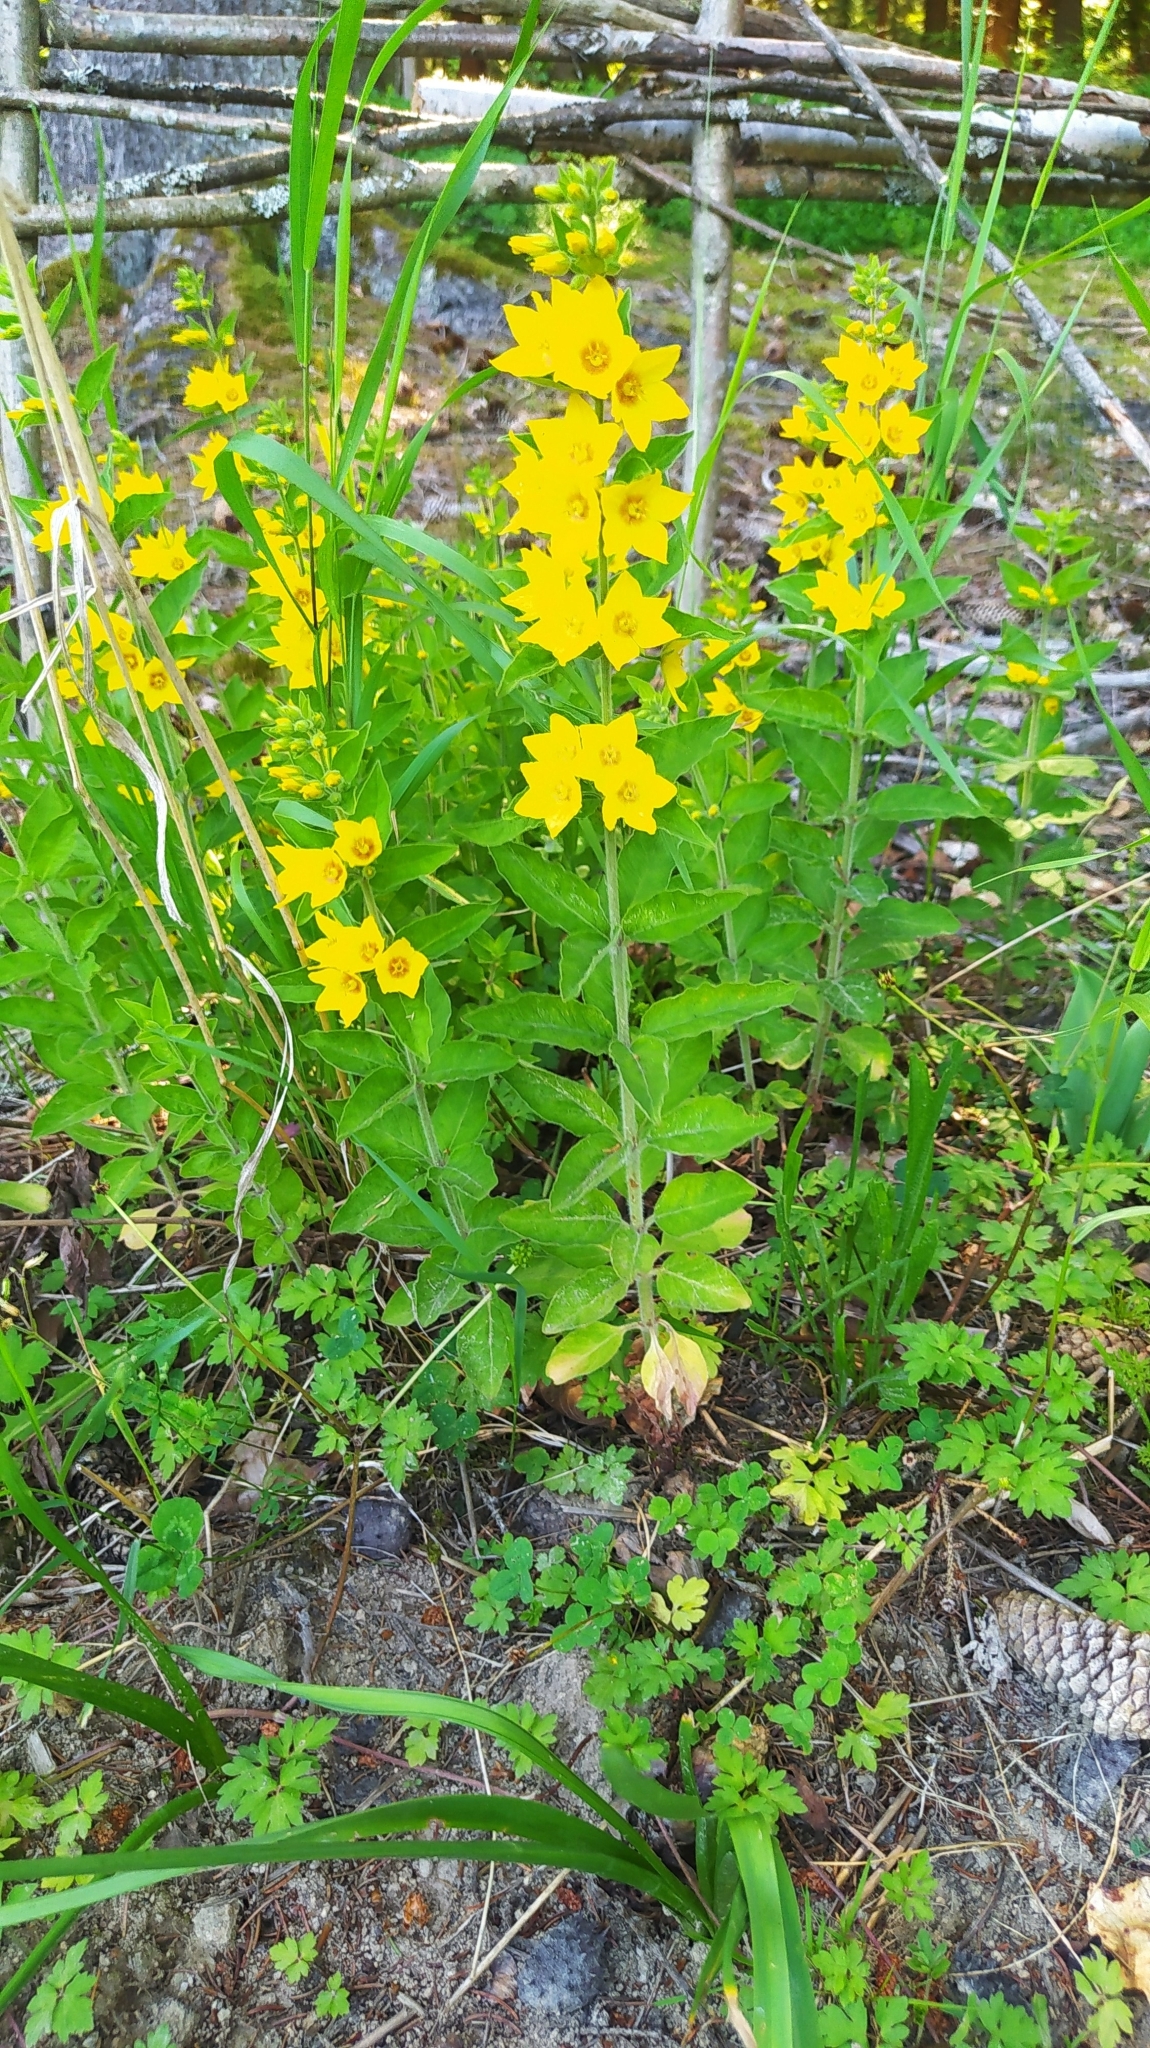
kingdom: Plantae
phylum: Tracheophyta
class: Magnoliopsida
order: Ericales
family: Primulaceae
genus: Lysimachia
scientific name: Lysimachia punctata
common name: Dotted loosestrife
